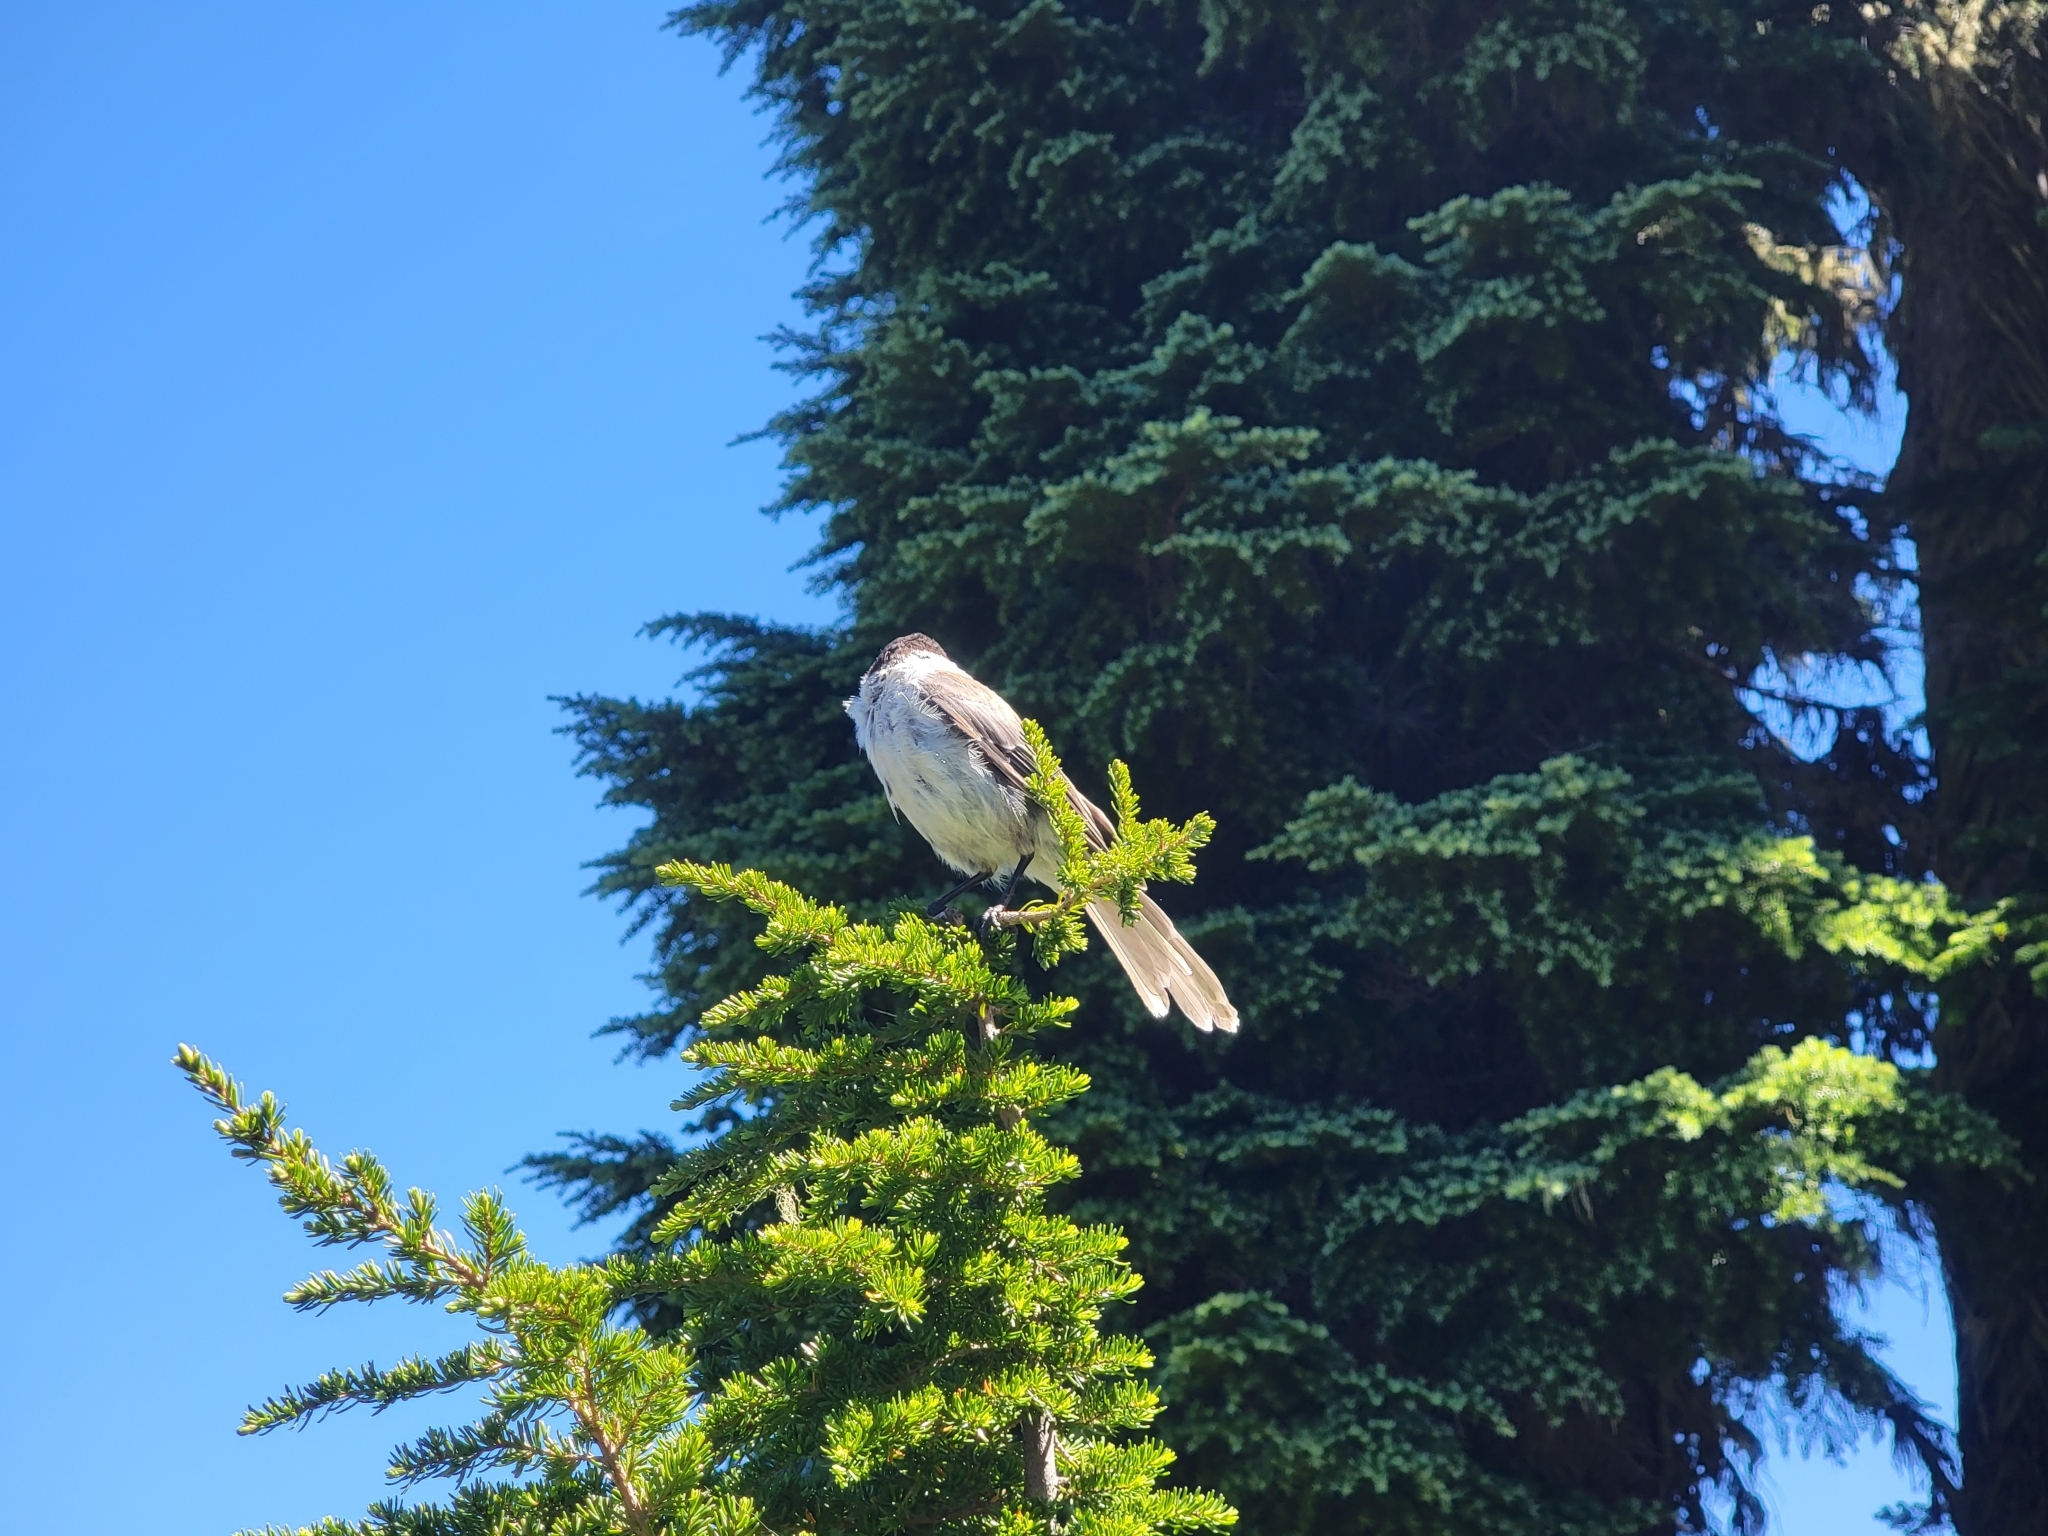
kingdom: Animalia
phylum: Chordata
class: Aves
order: Passeriformes
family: Corvidae
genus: Perisoreus
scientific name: Perisoreus canadensis
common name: Gray jay
